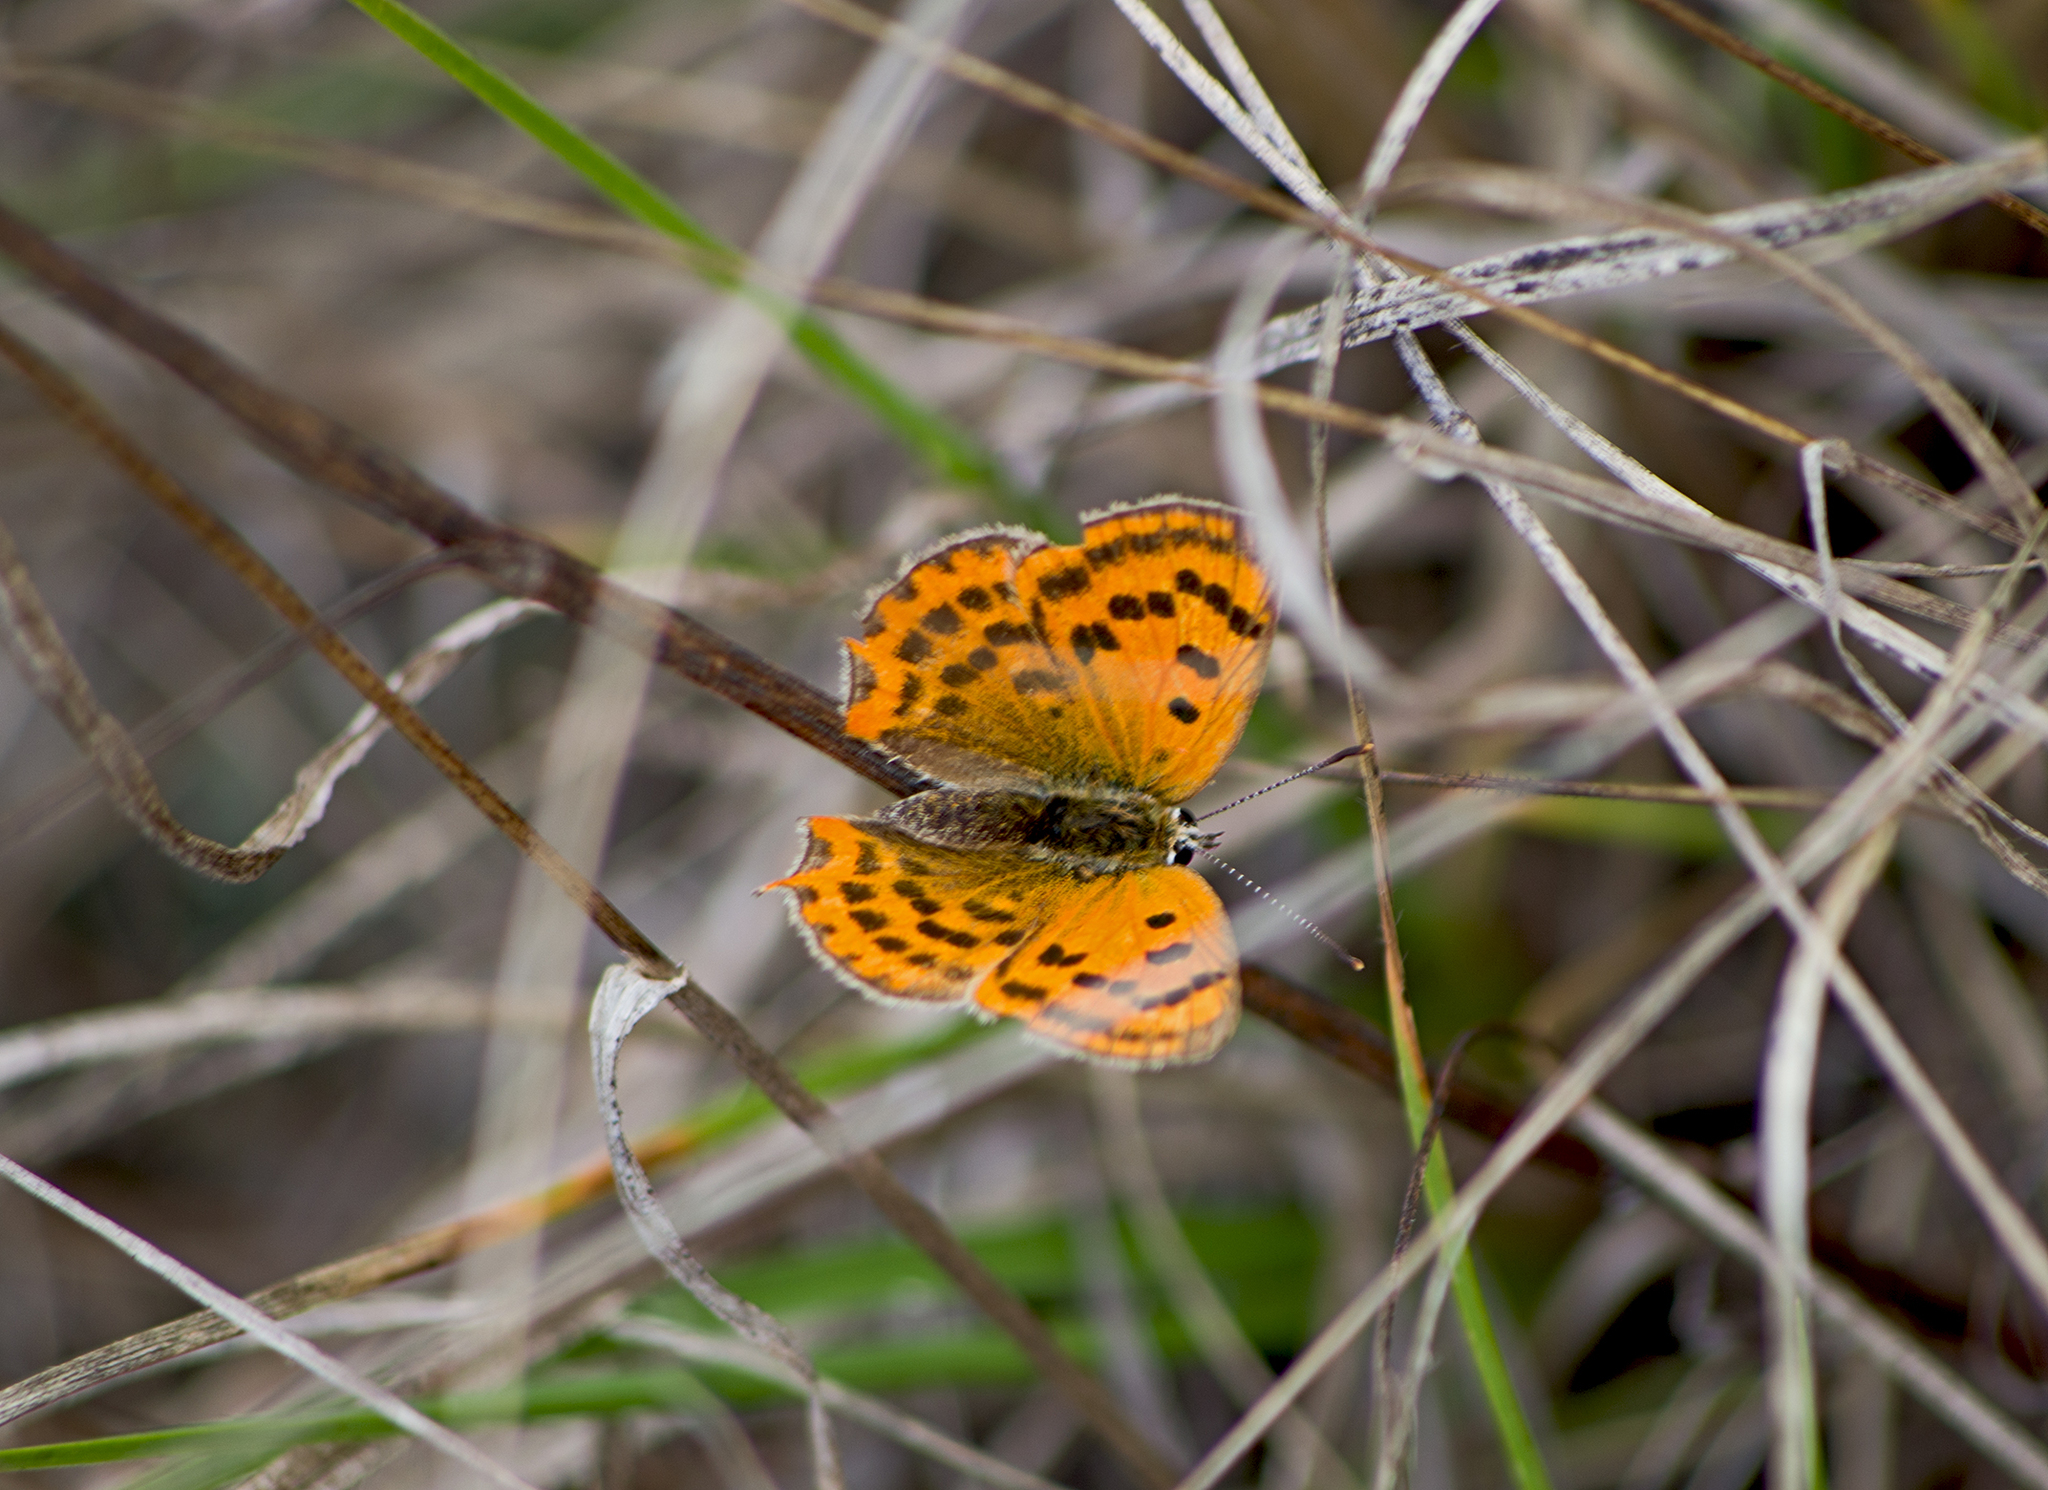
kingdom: Animalia
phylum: Arthropoda
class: Insecta
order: Lepidoptera
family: Lycaenidae
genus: Polyommatus
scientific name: Polyommatus ottomanus
